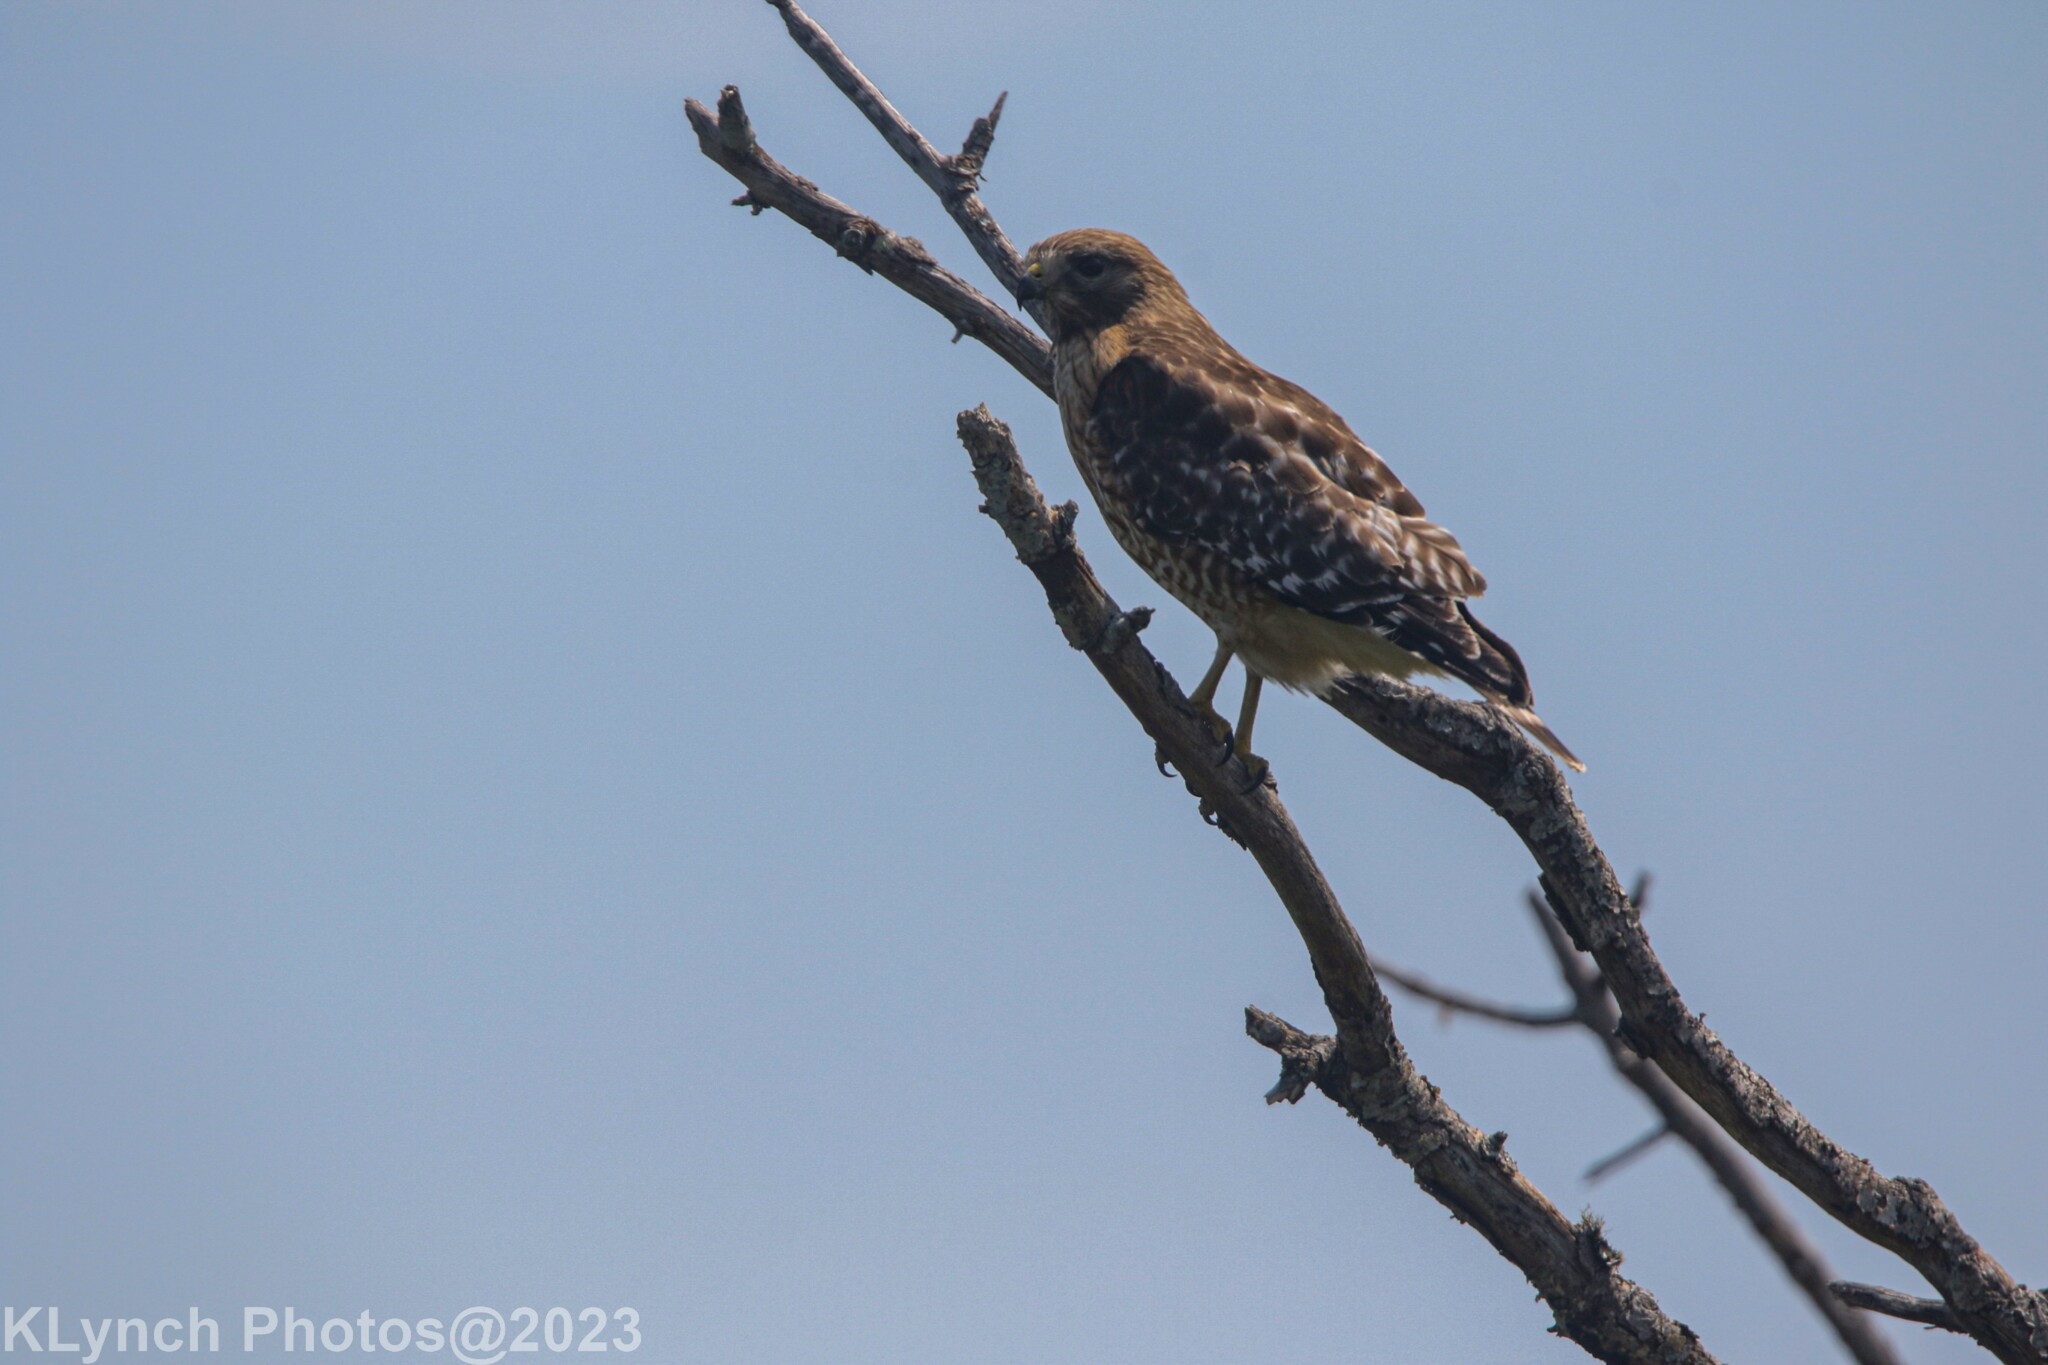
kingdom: Animalia
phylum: Chordata
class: Aves
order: Accipitriformes
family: Accipitridae
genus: Buteo
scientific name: Buteo lineatus
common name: Red-shouldered hawk
